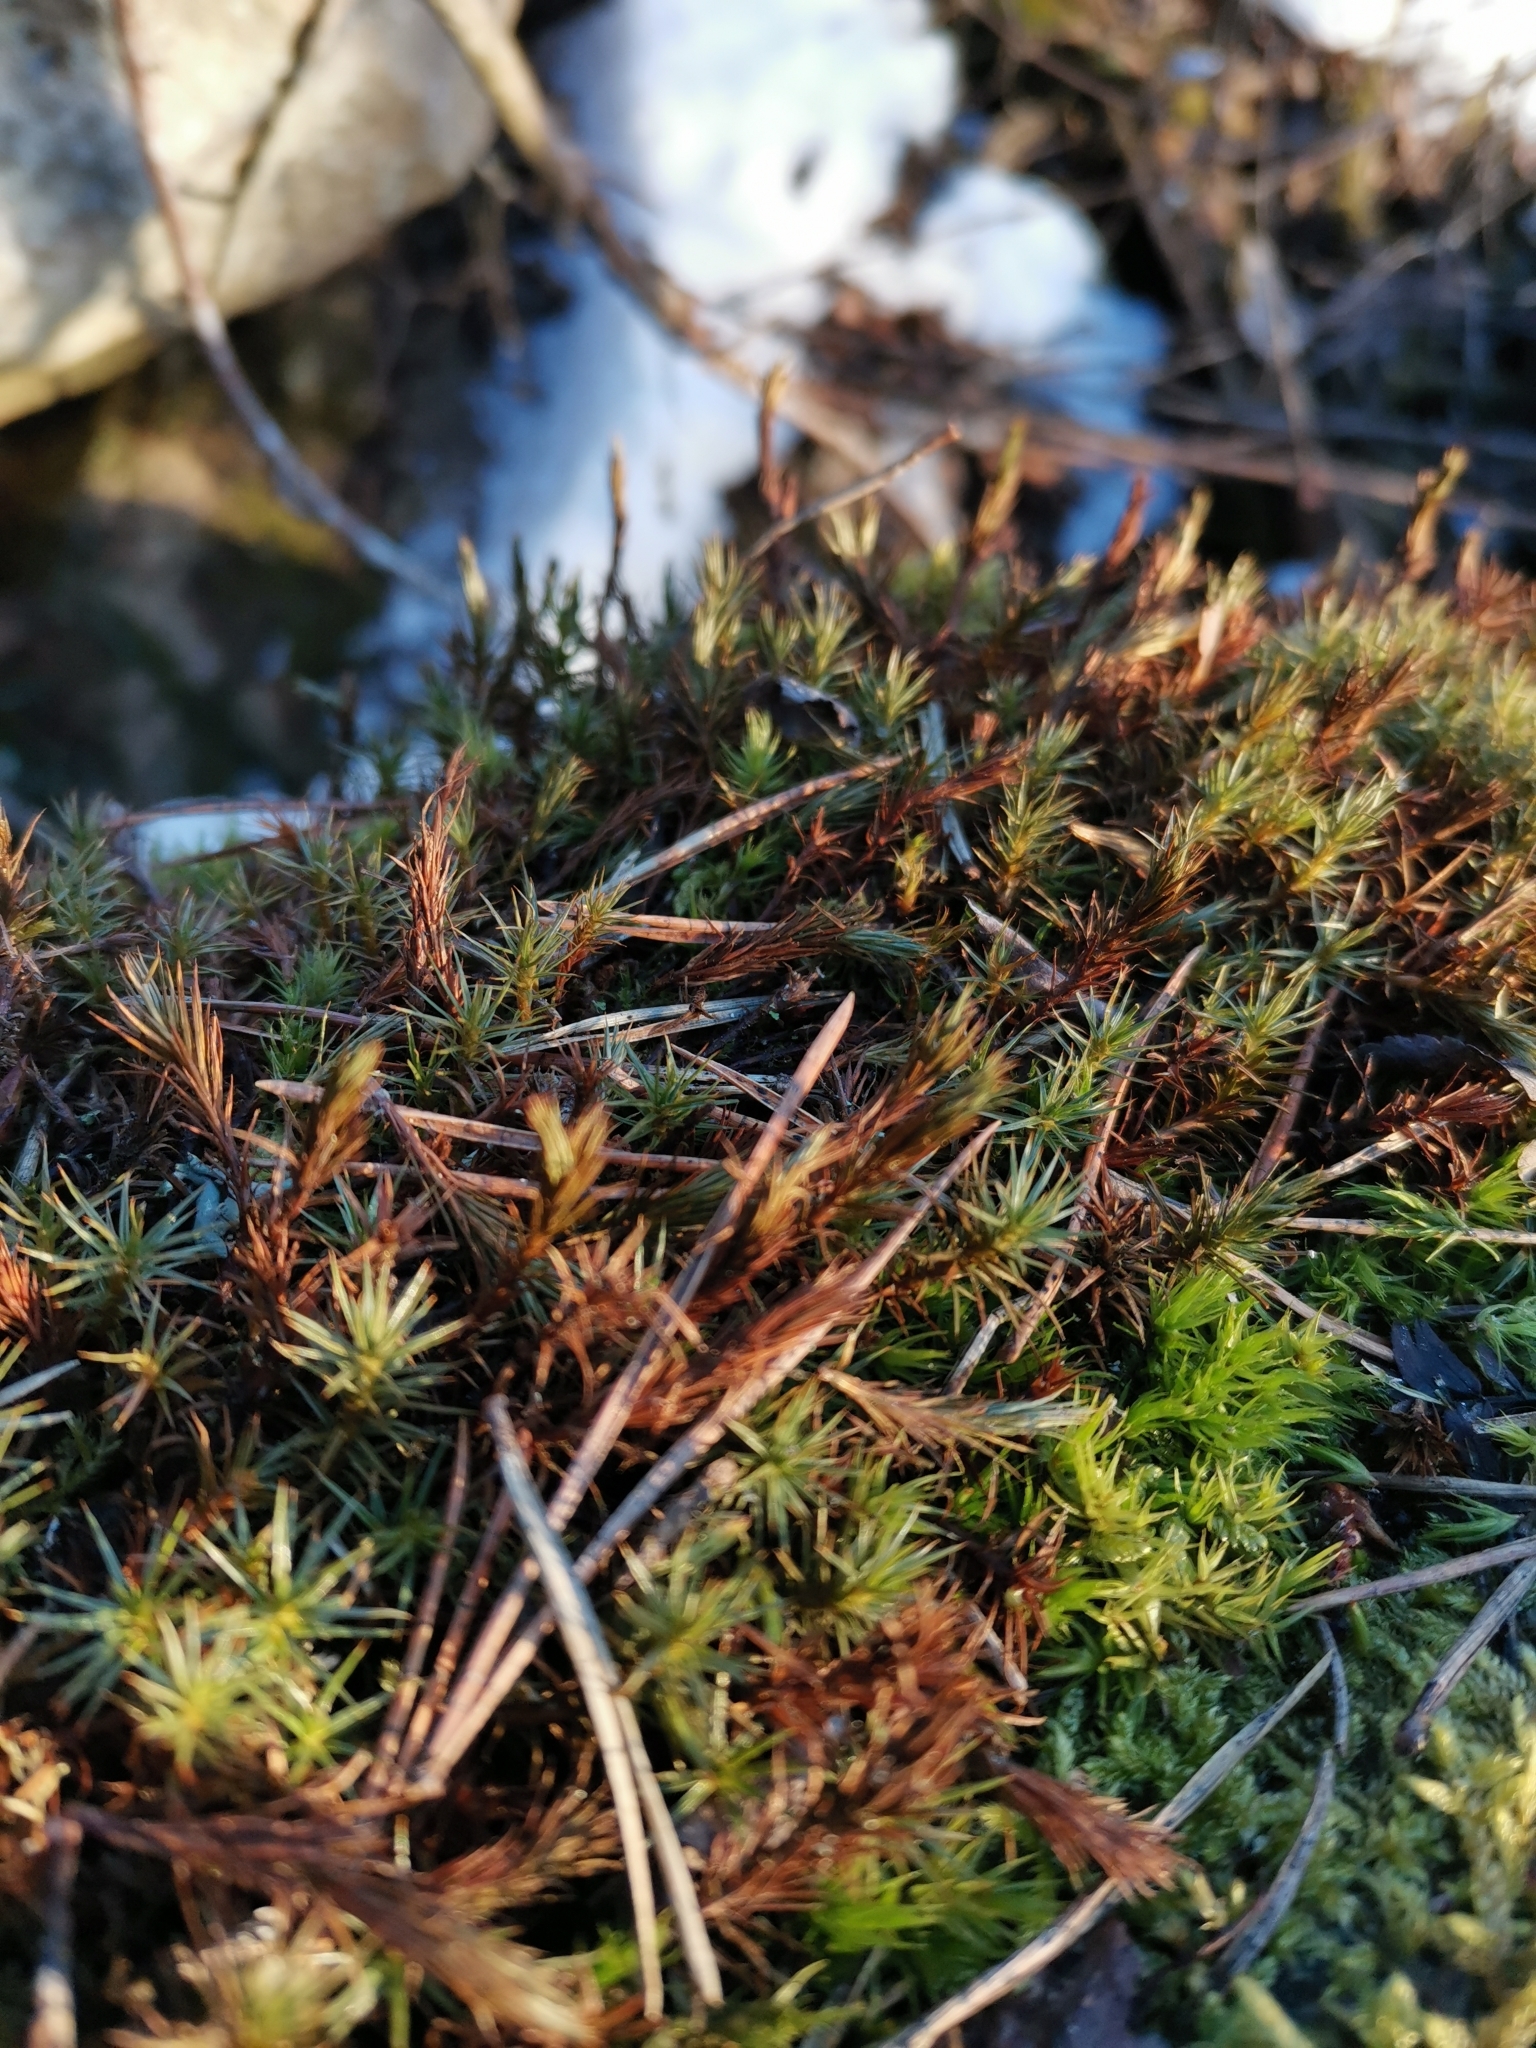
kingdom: Plantae
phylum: Bryophyta
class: Polytrichopsida
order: Polytrichales
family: Polytrichaceae
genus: Polytrichum
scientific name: Polytrichum juniperinum
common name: Juniper haircap moss
